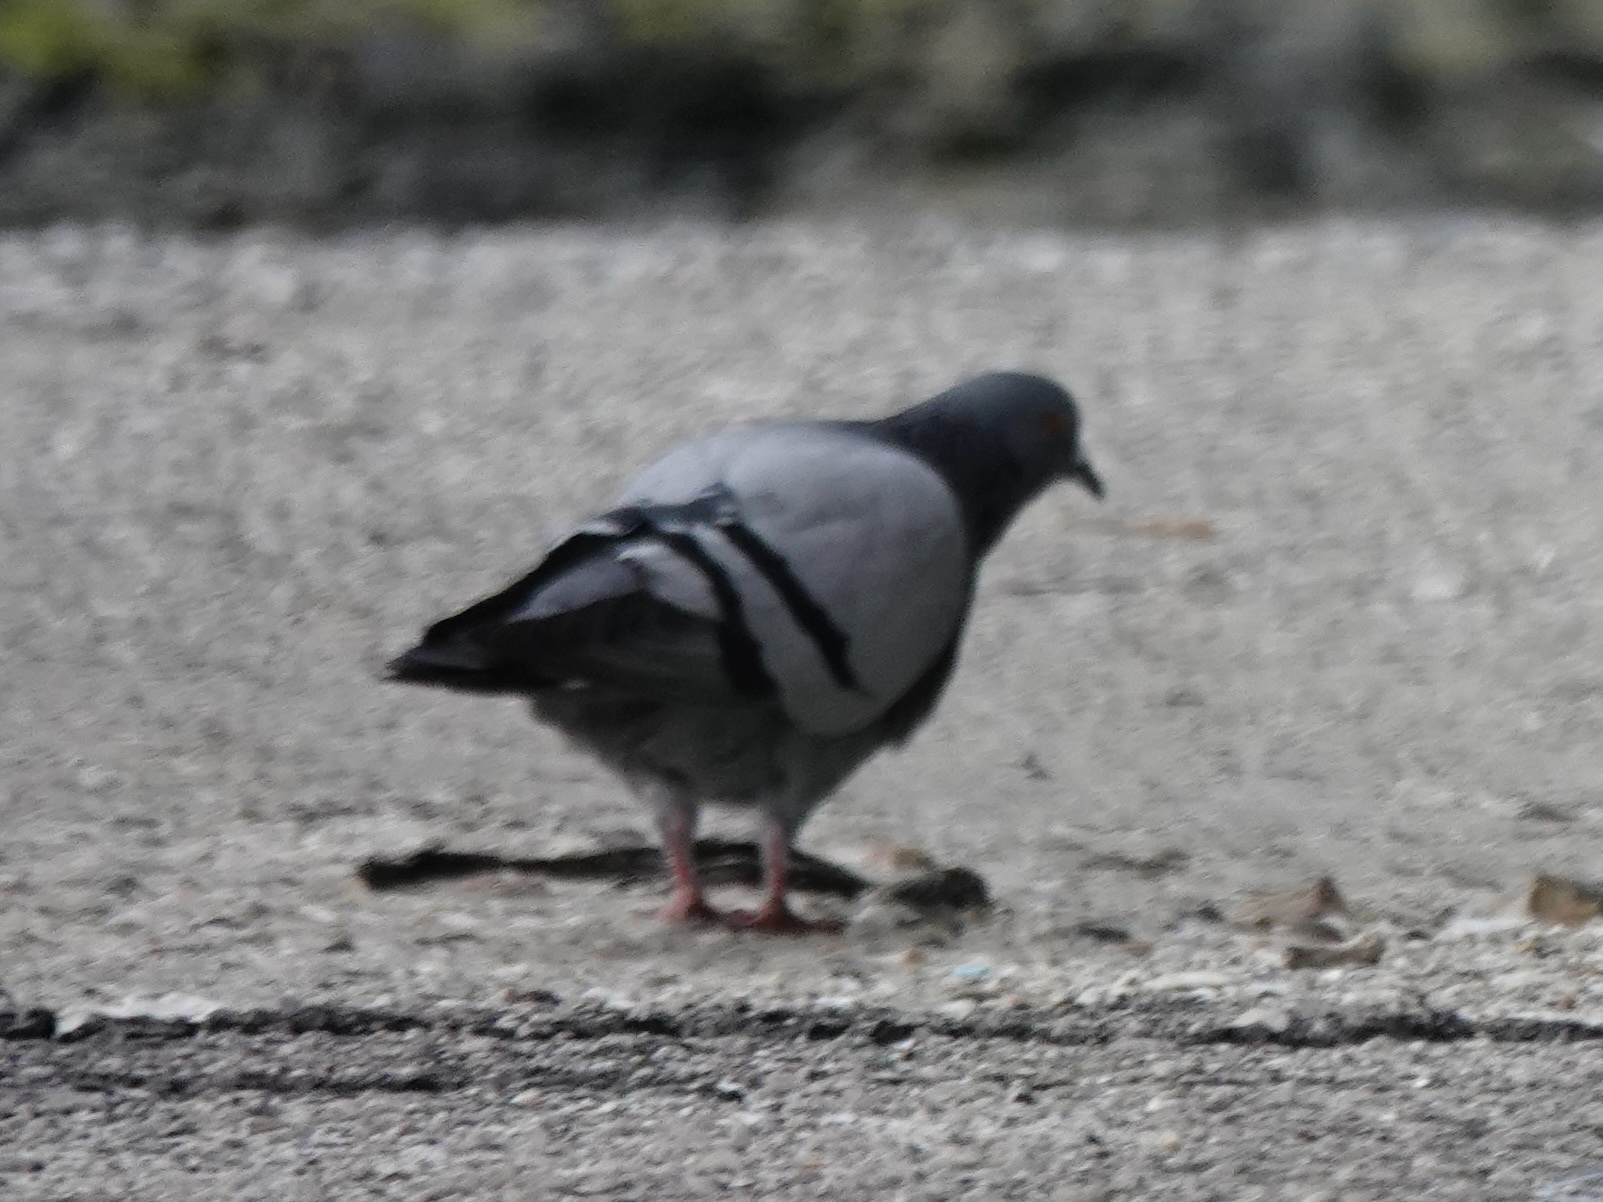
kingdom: Animalia
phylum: Chordata
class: Aves
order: Columbiformes
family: Columbidae
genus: Columba
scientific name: Columba livia
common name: Rock pigeon
